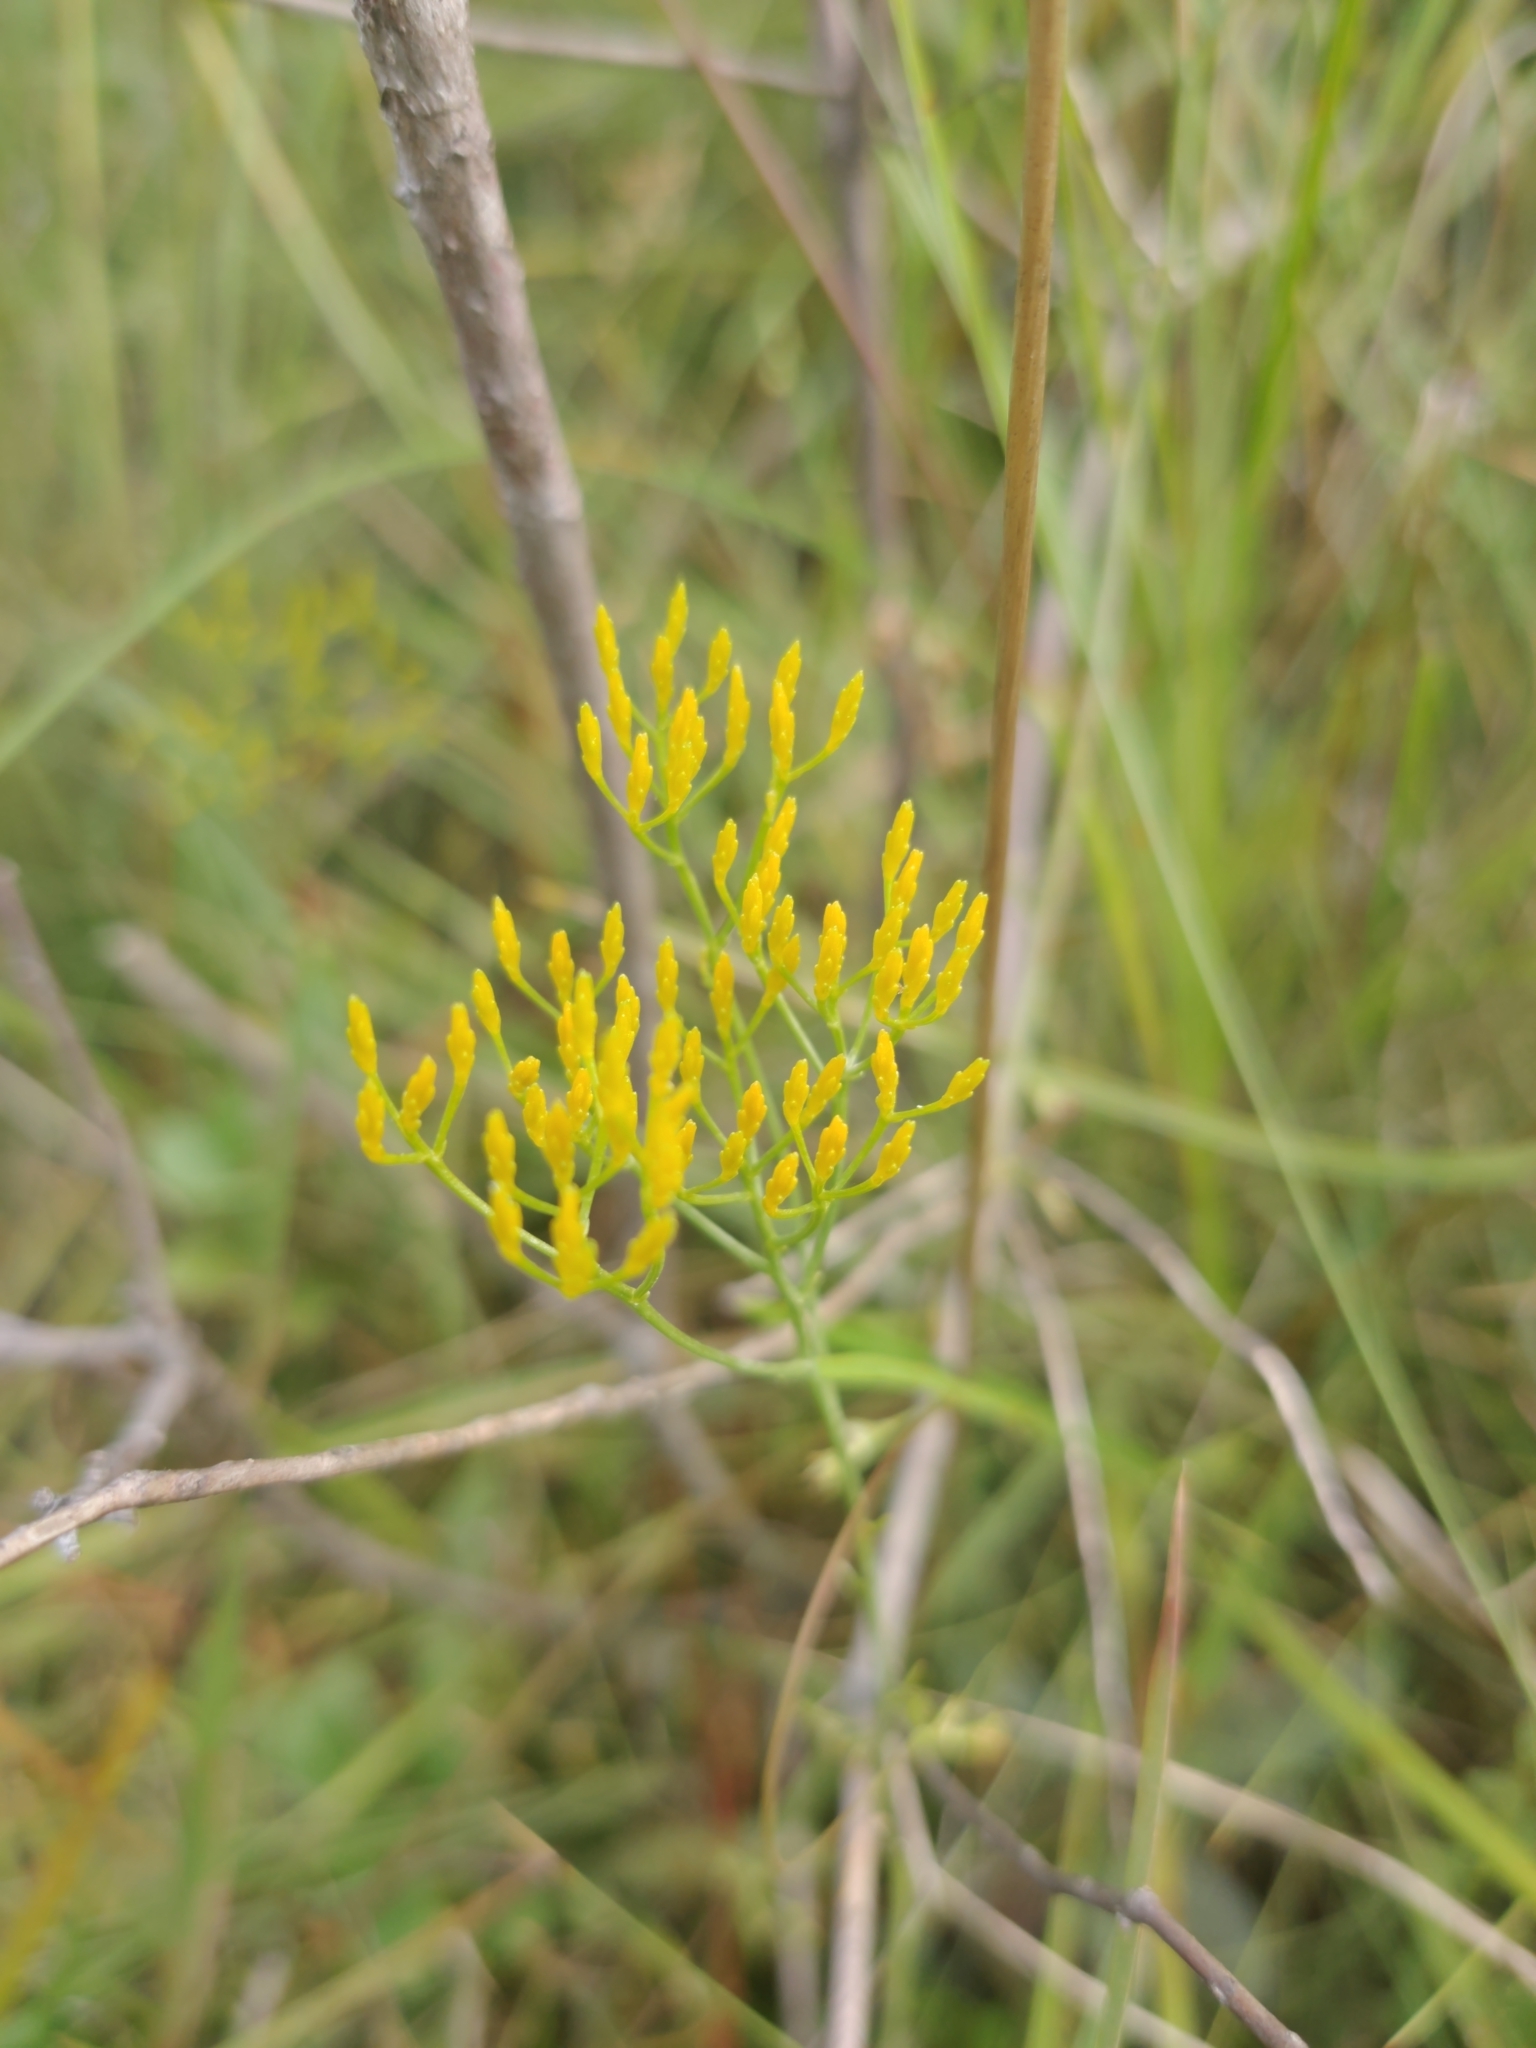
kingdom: Plantae
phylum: Tracheophyta
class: Magnoliopsida
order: Asterales
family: Asteraceae
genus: Bigelowia
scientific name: Bigelowia nudata
